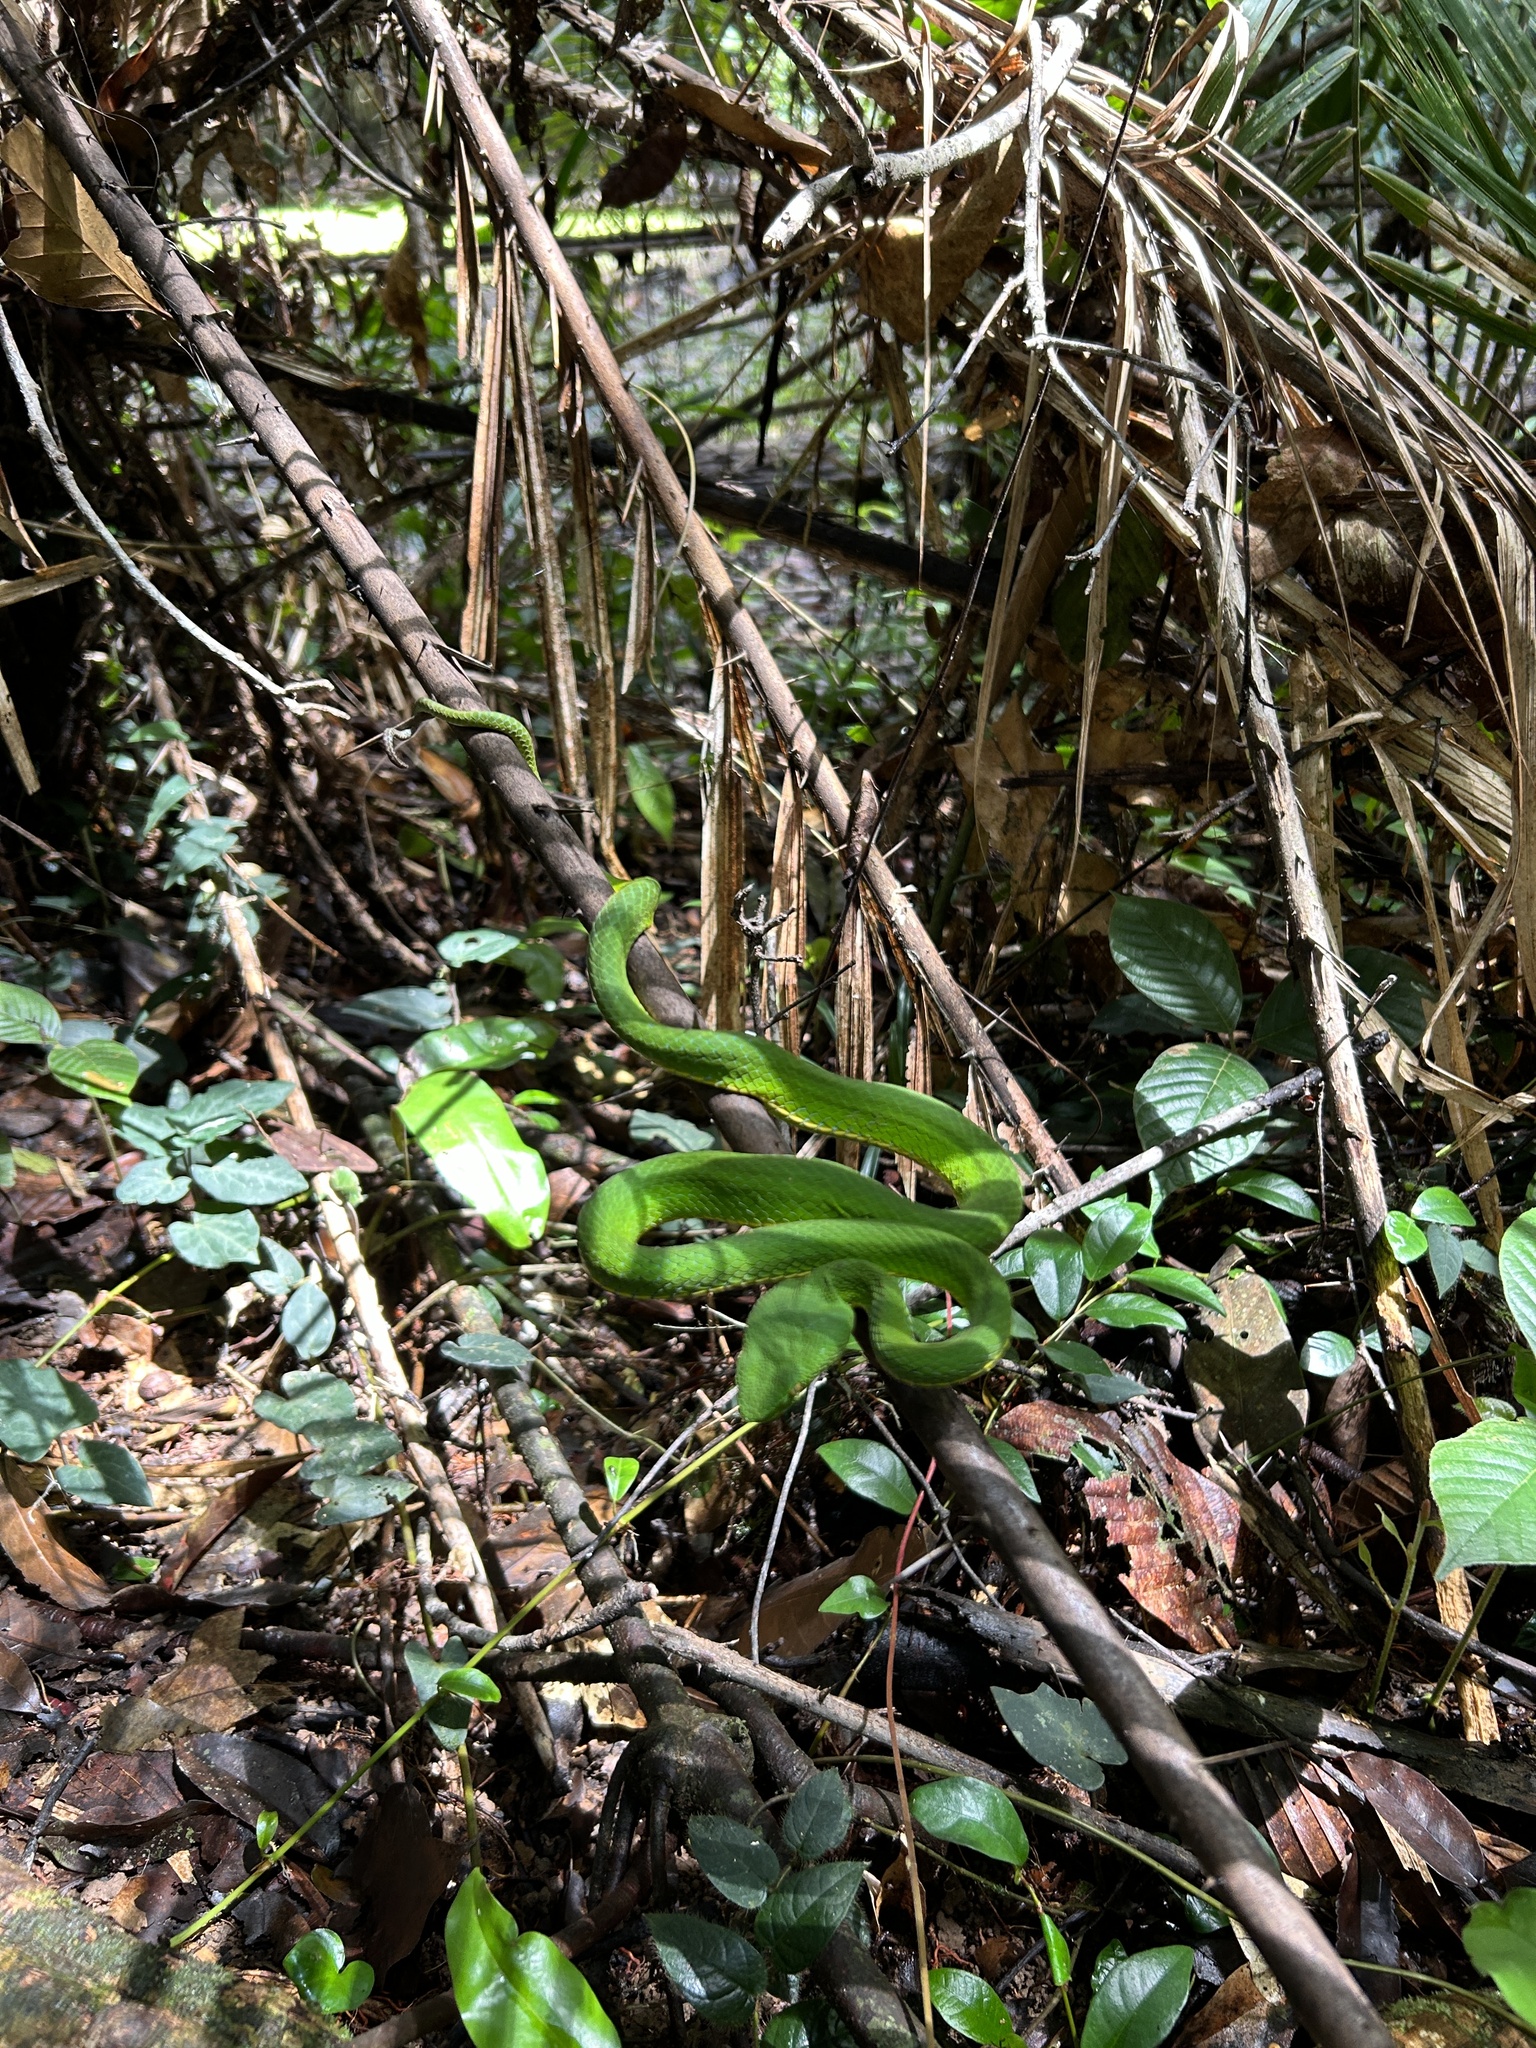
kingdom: Animalia
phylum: Chordata
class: Squamata
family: Viperidae
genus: Trimeresurus
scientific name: Trimeresurus vogeli
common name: Vogel's pit viper
